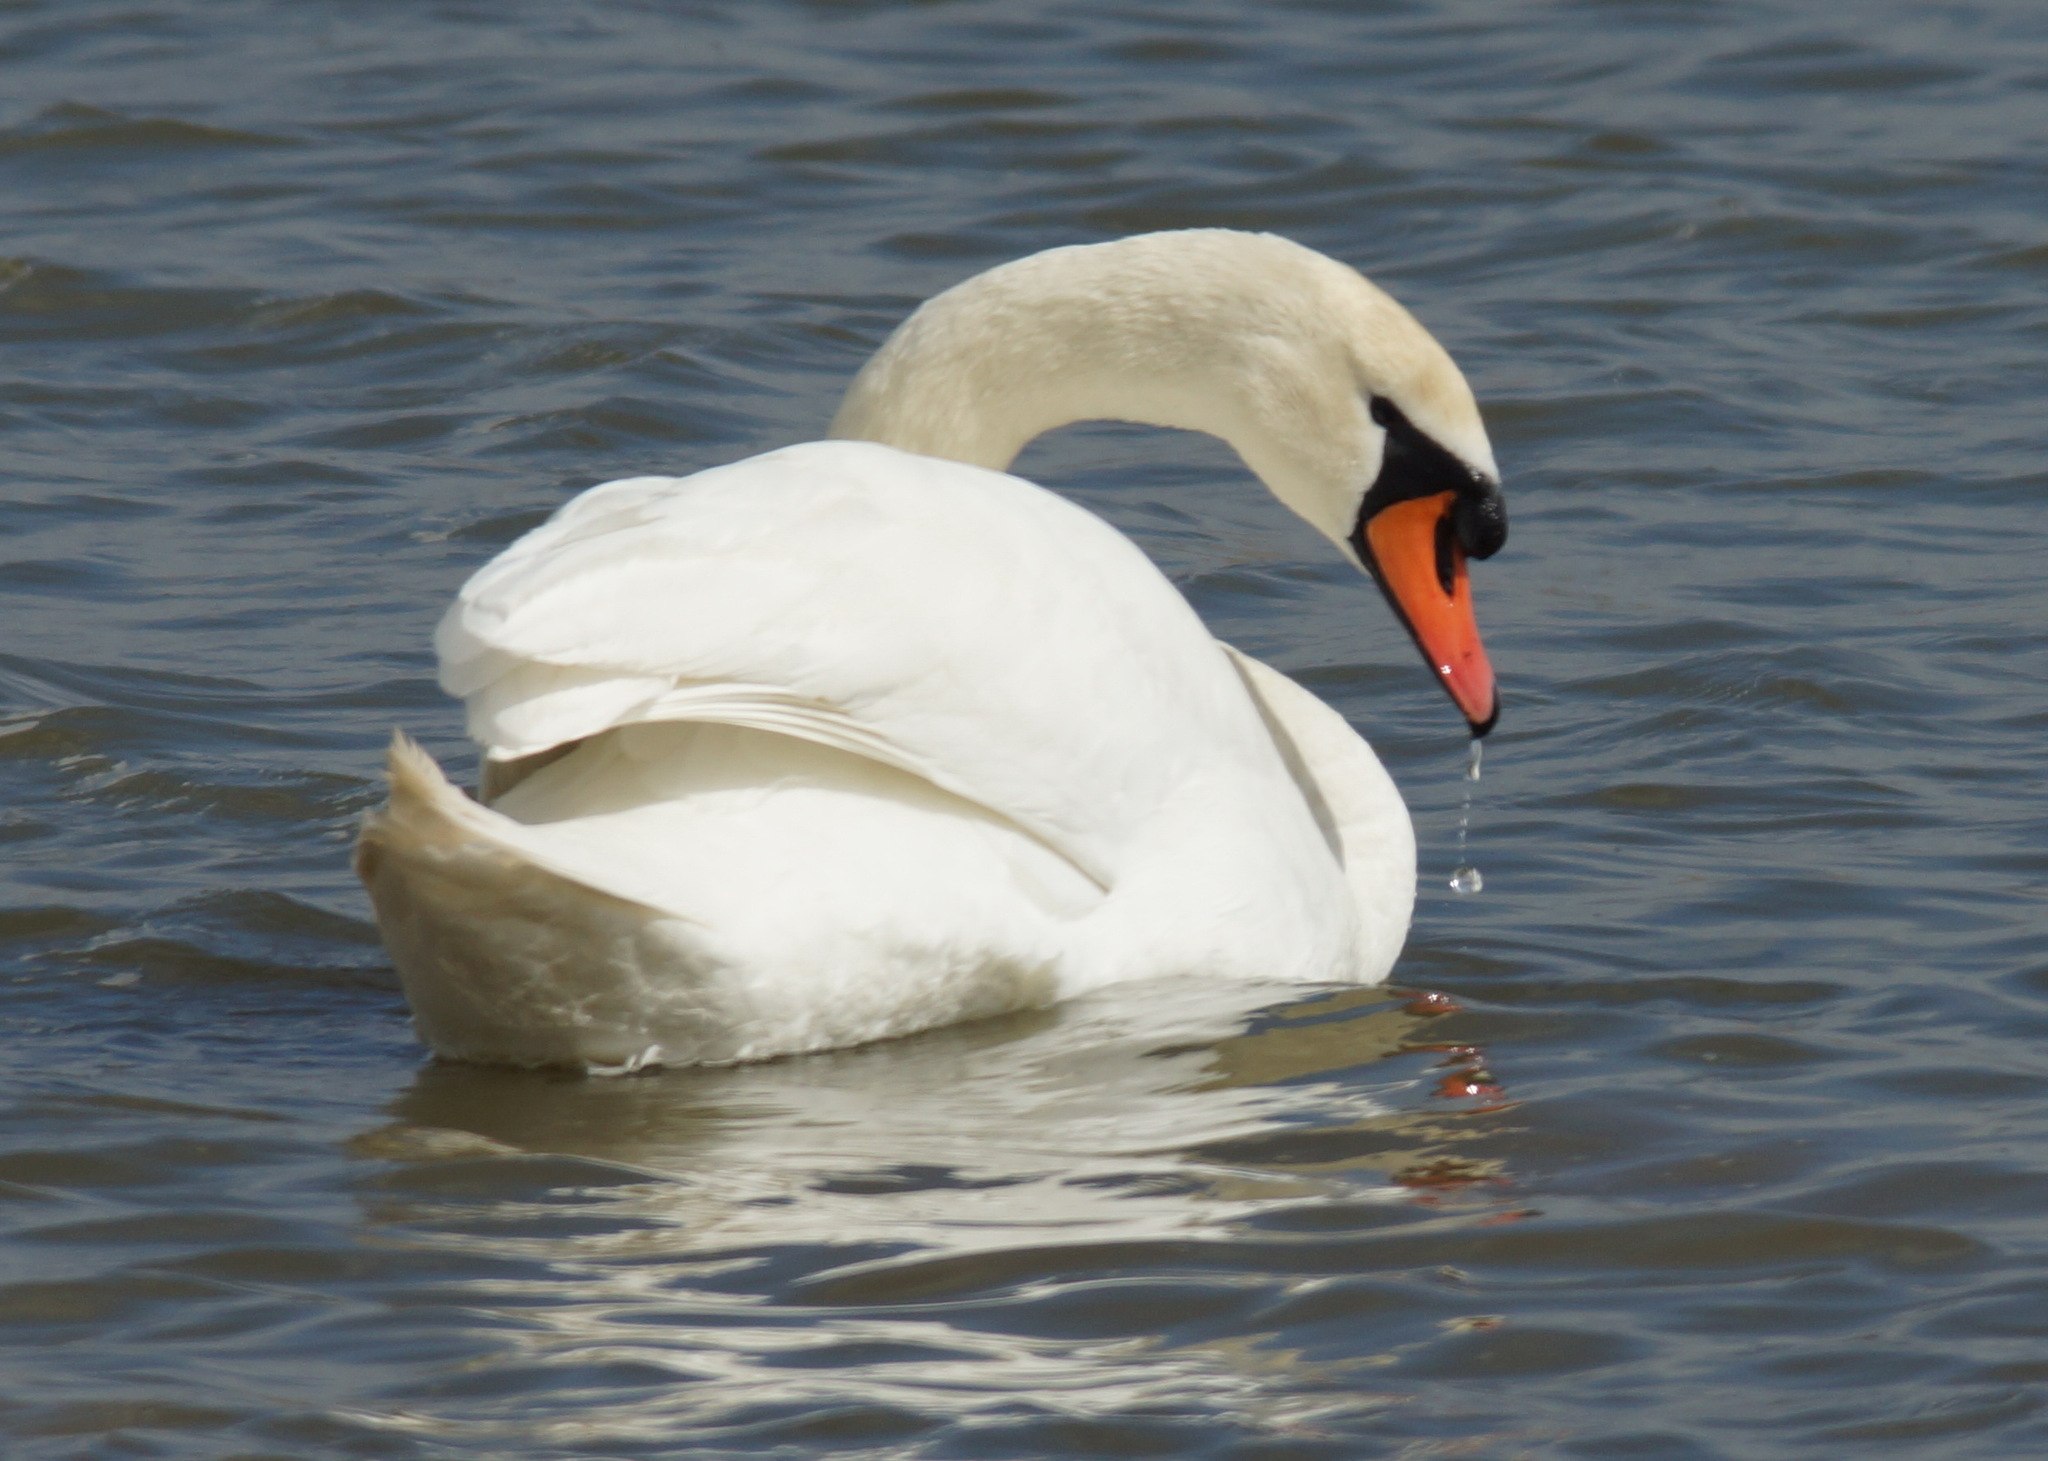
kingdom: Animalia
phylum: Chordata
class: Aves
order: Anseriformes
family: Anatidae
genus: Cygnus
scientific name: Cygnus olor
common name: Mute swan
